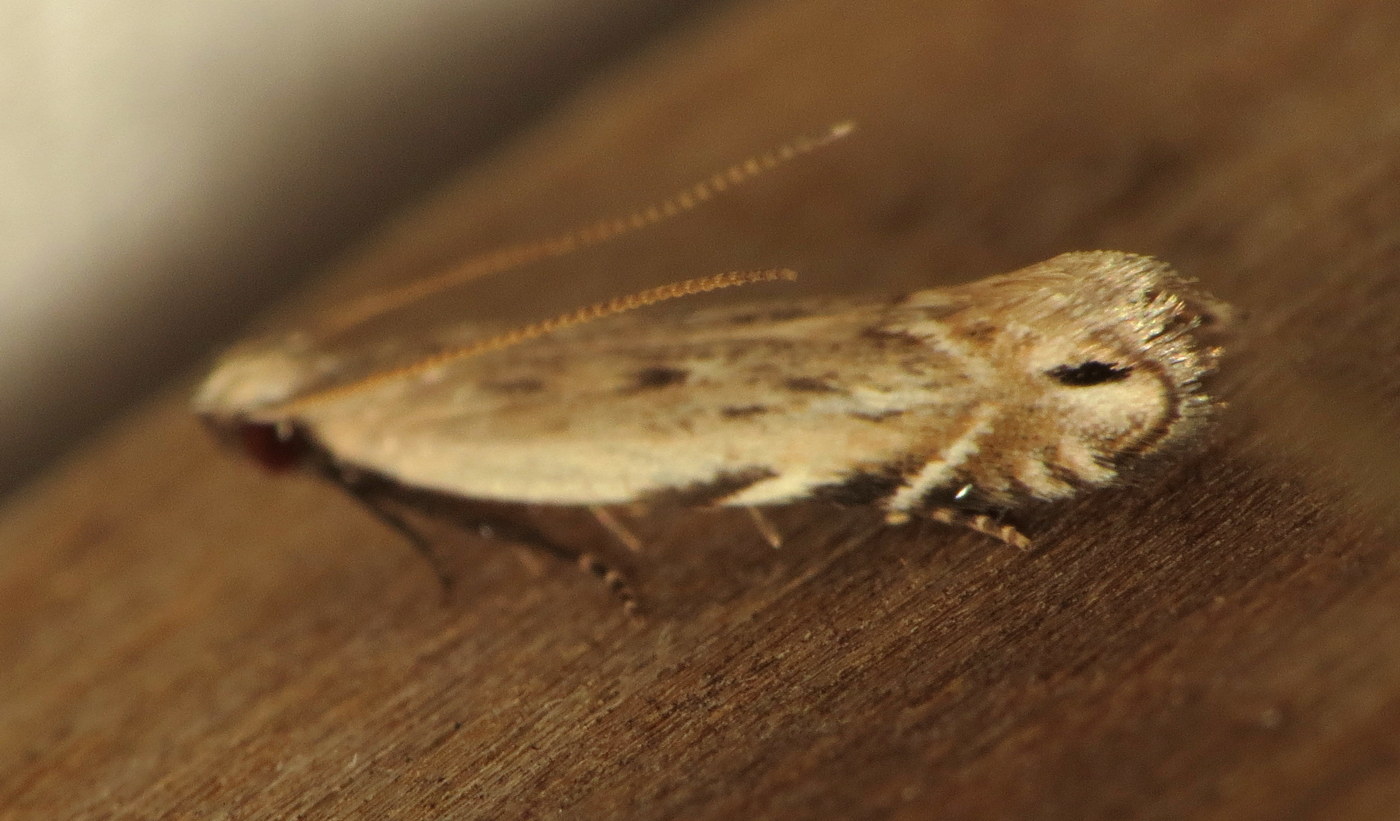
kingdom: Animalia
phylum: Arthropoda
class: Insecta
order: Lepidoptera
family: Gelechiidae
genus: Battaristis
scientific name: Battaristis nigratomella
